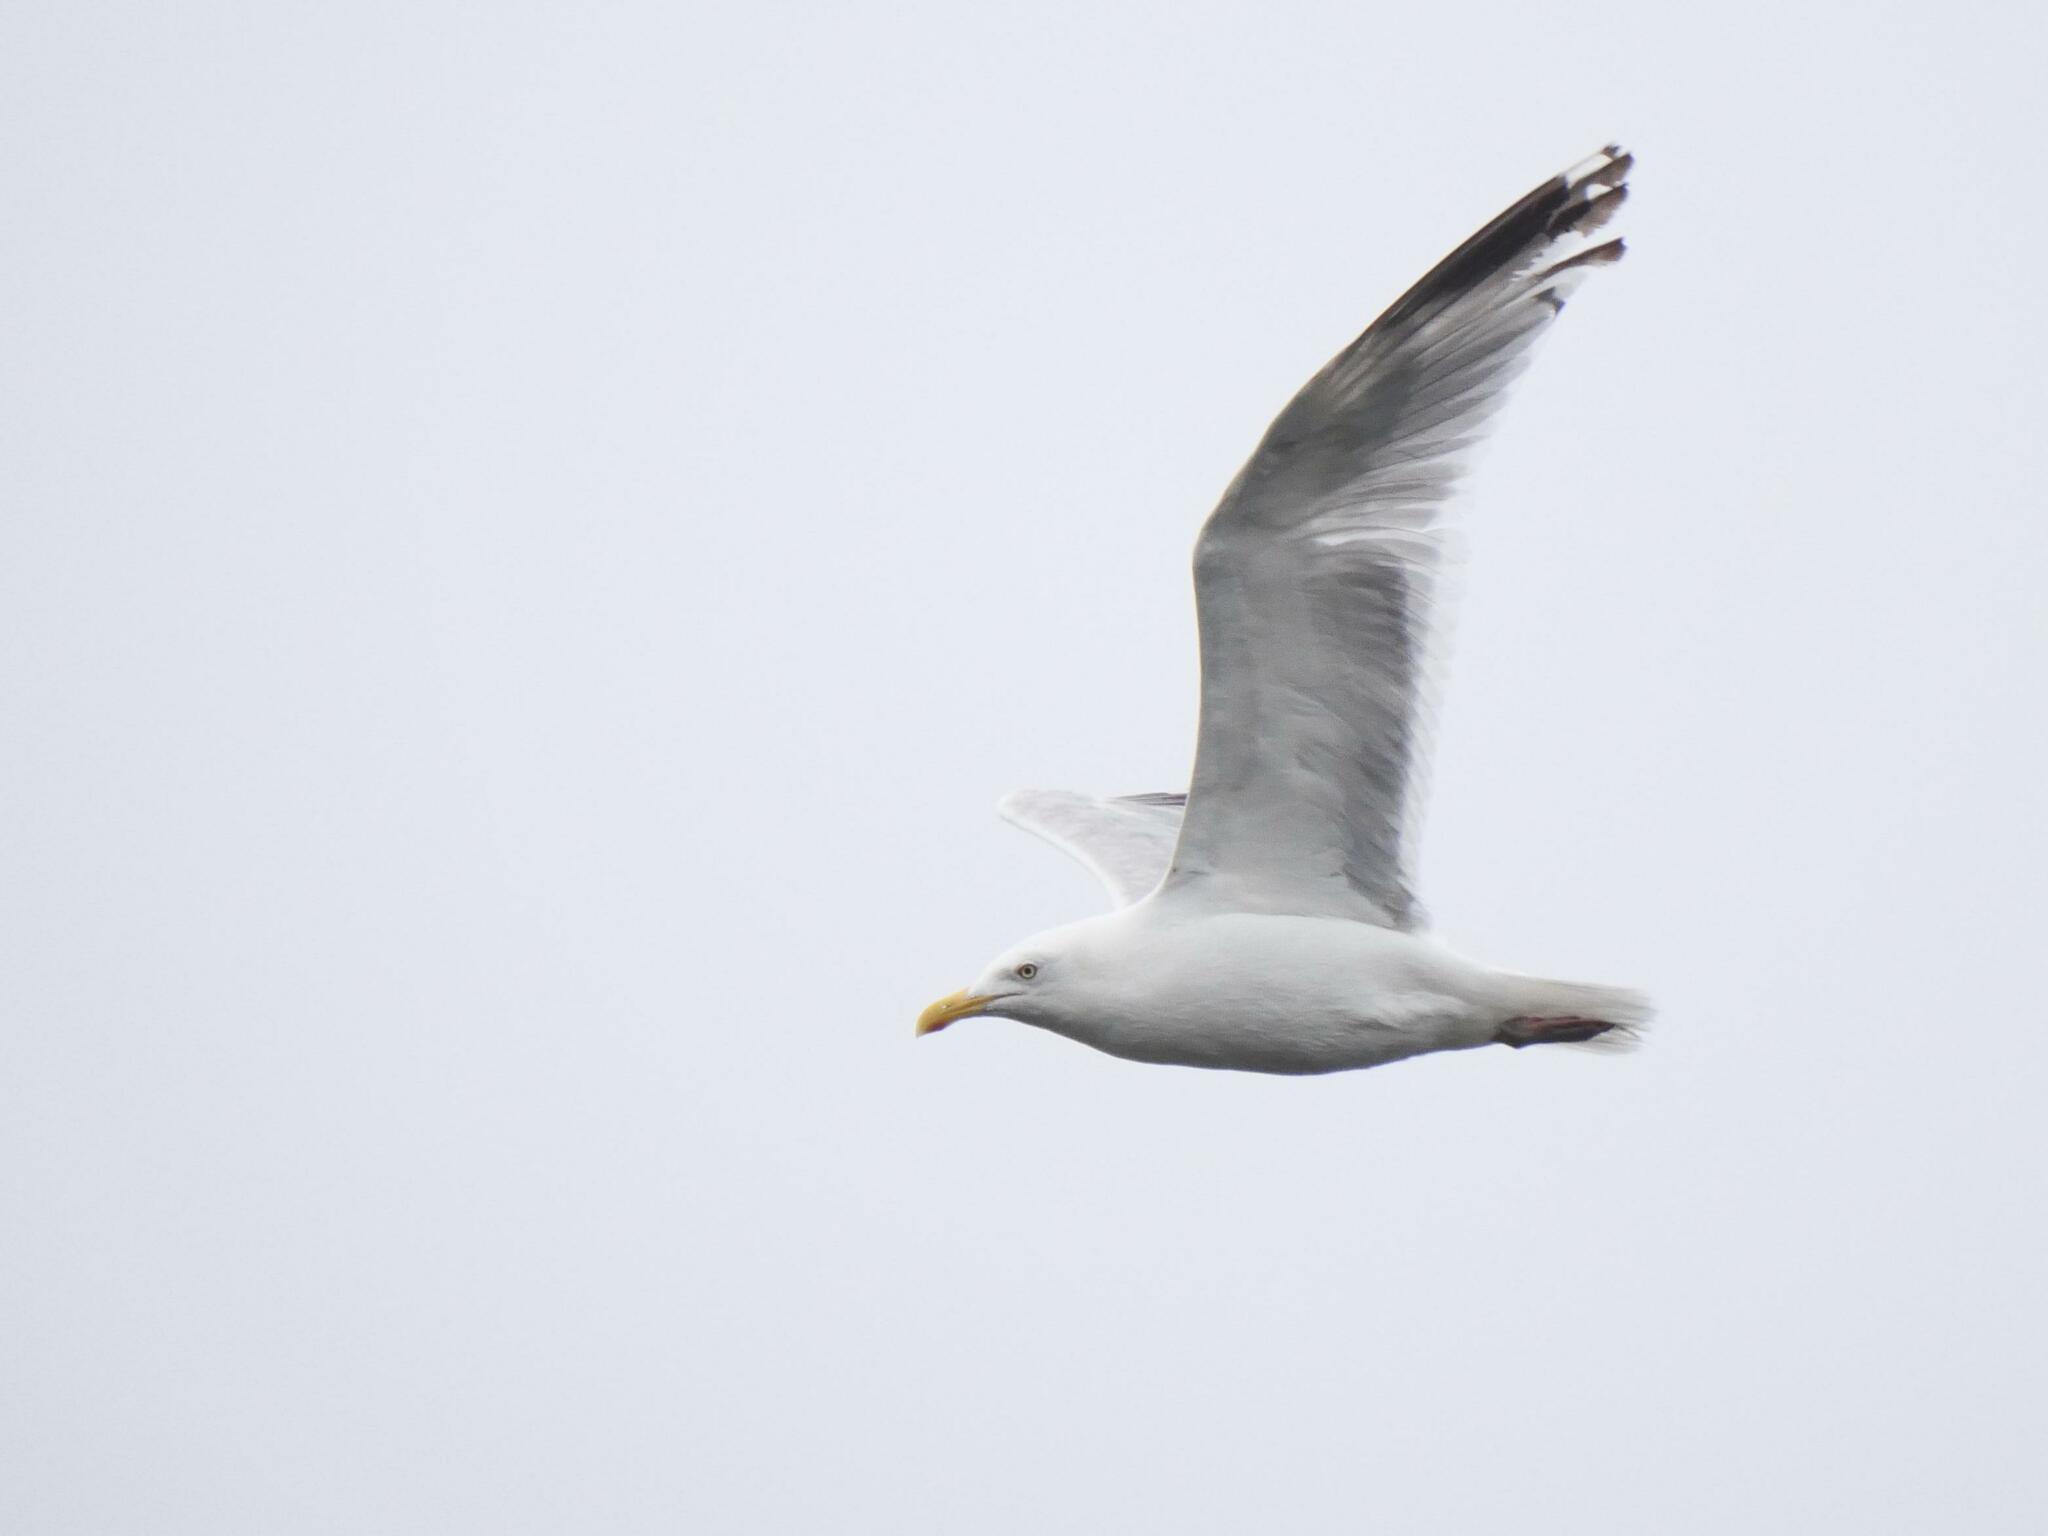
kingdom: Animalia
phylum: Chordata
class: Aves
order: Charadriiformes
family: Laridae
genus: Larus
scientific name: Larus argentatus
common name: Herring gull
